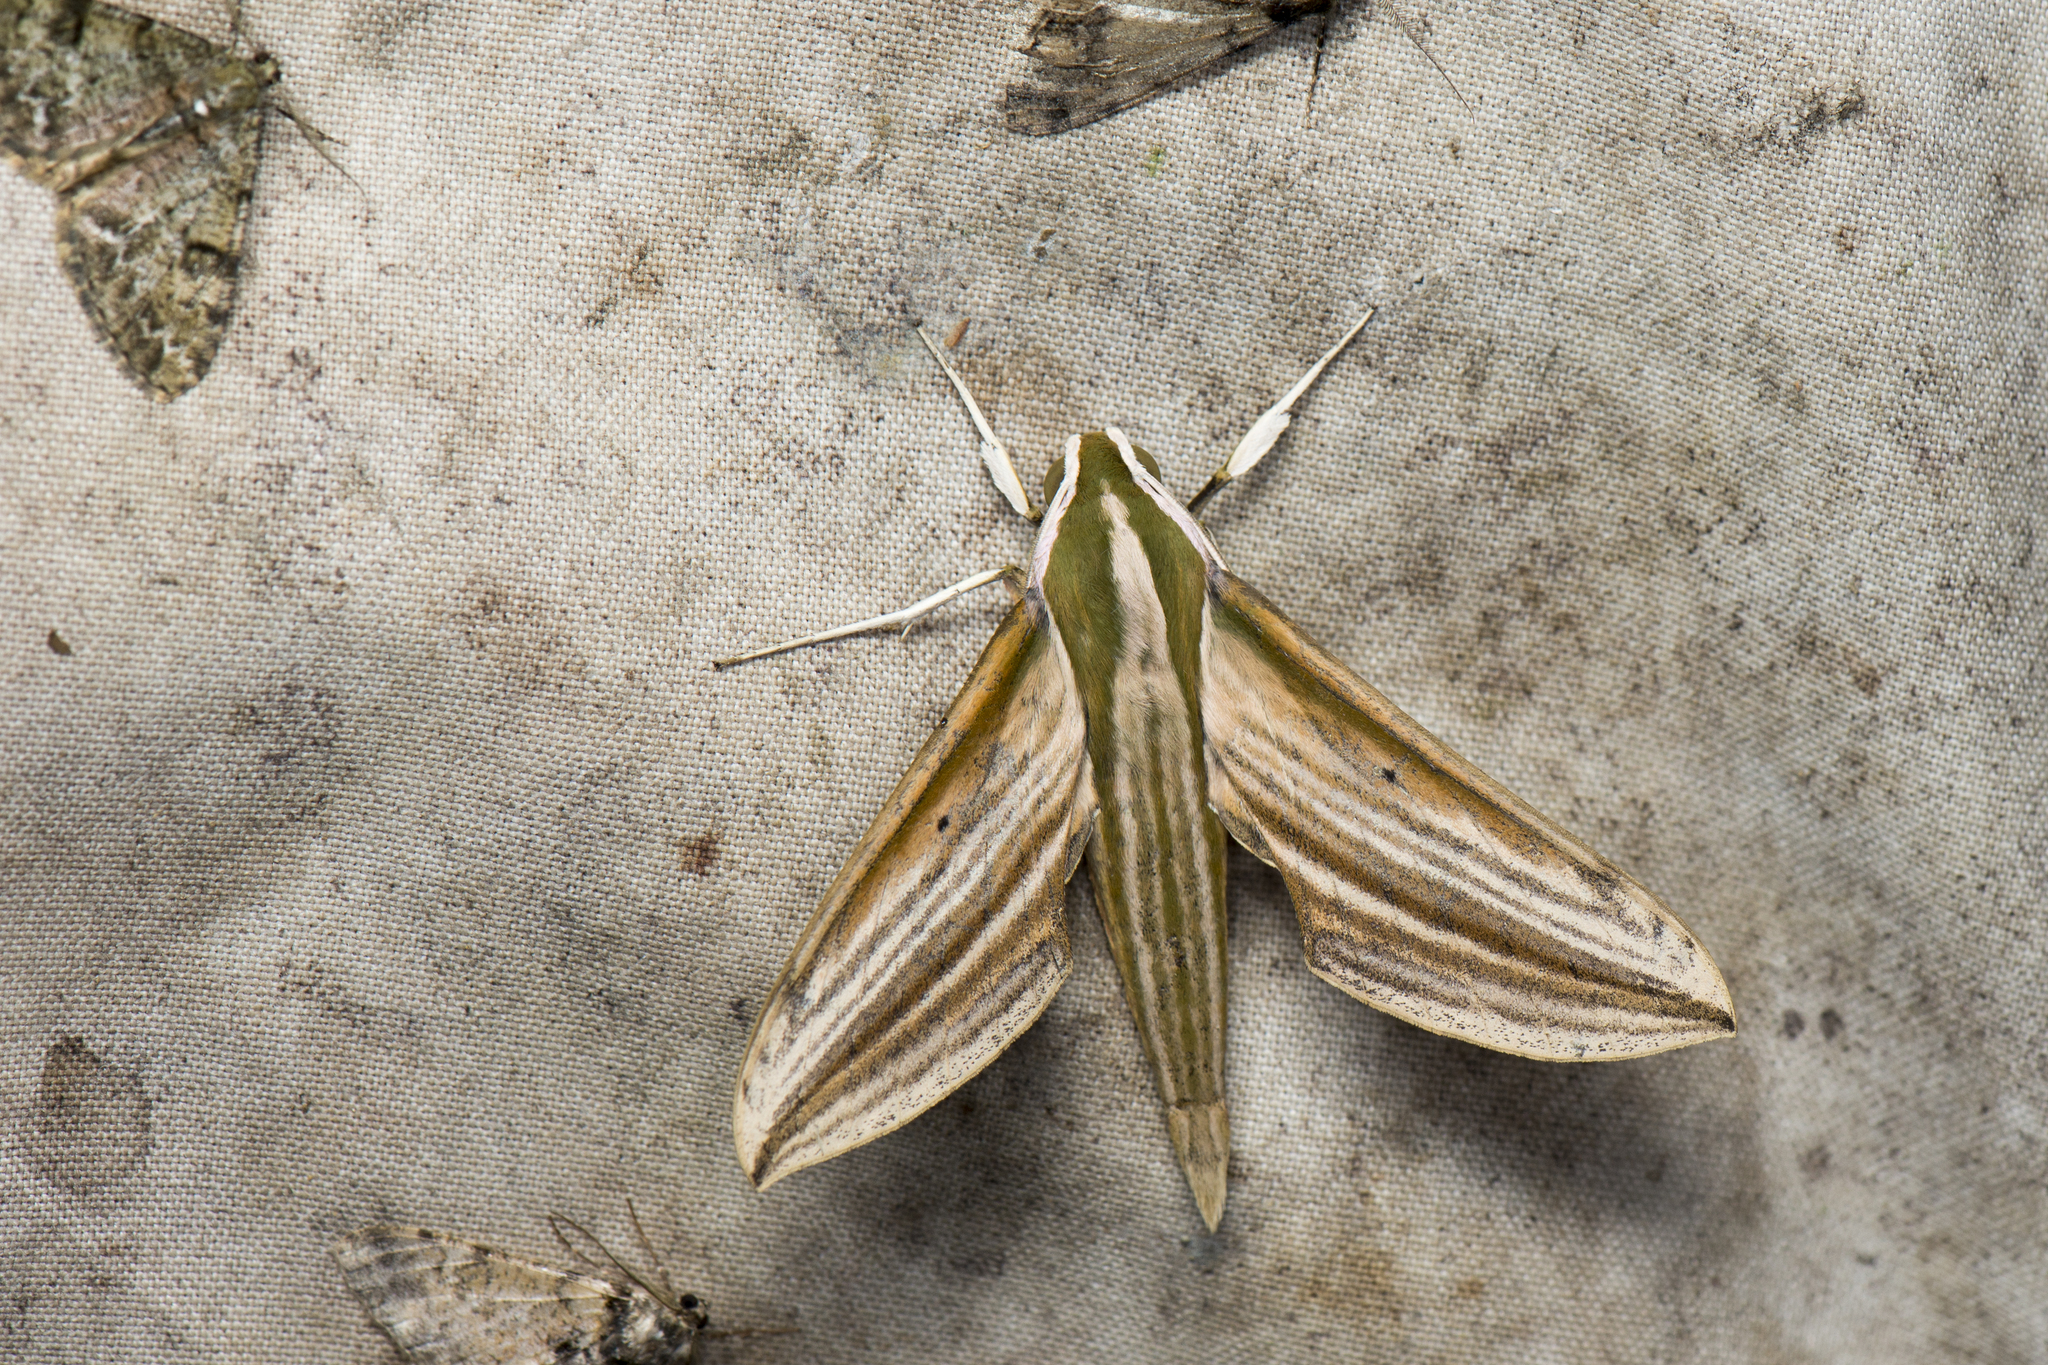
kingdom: Animalia
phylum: Arthropoda
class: Insecta
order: Lepidoptera
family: Sphingidae
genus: Cechetra
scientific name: Cechetra lineosa
